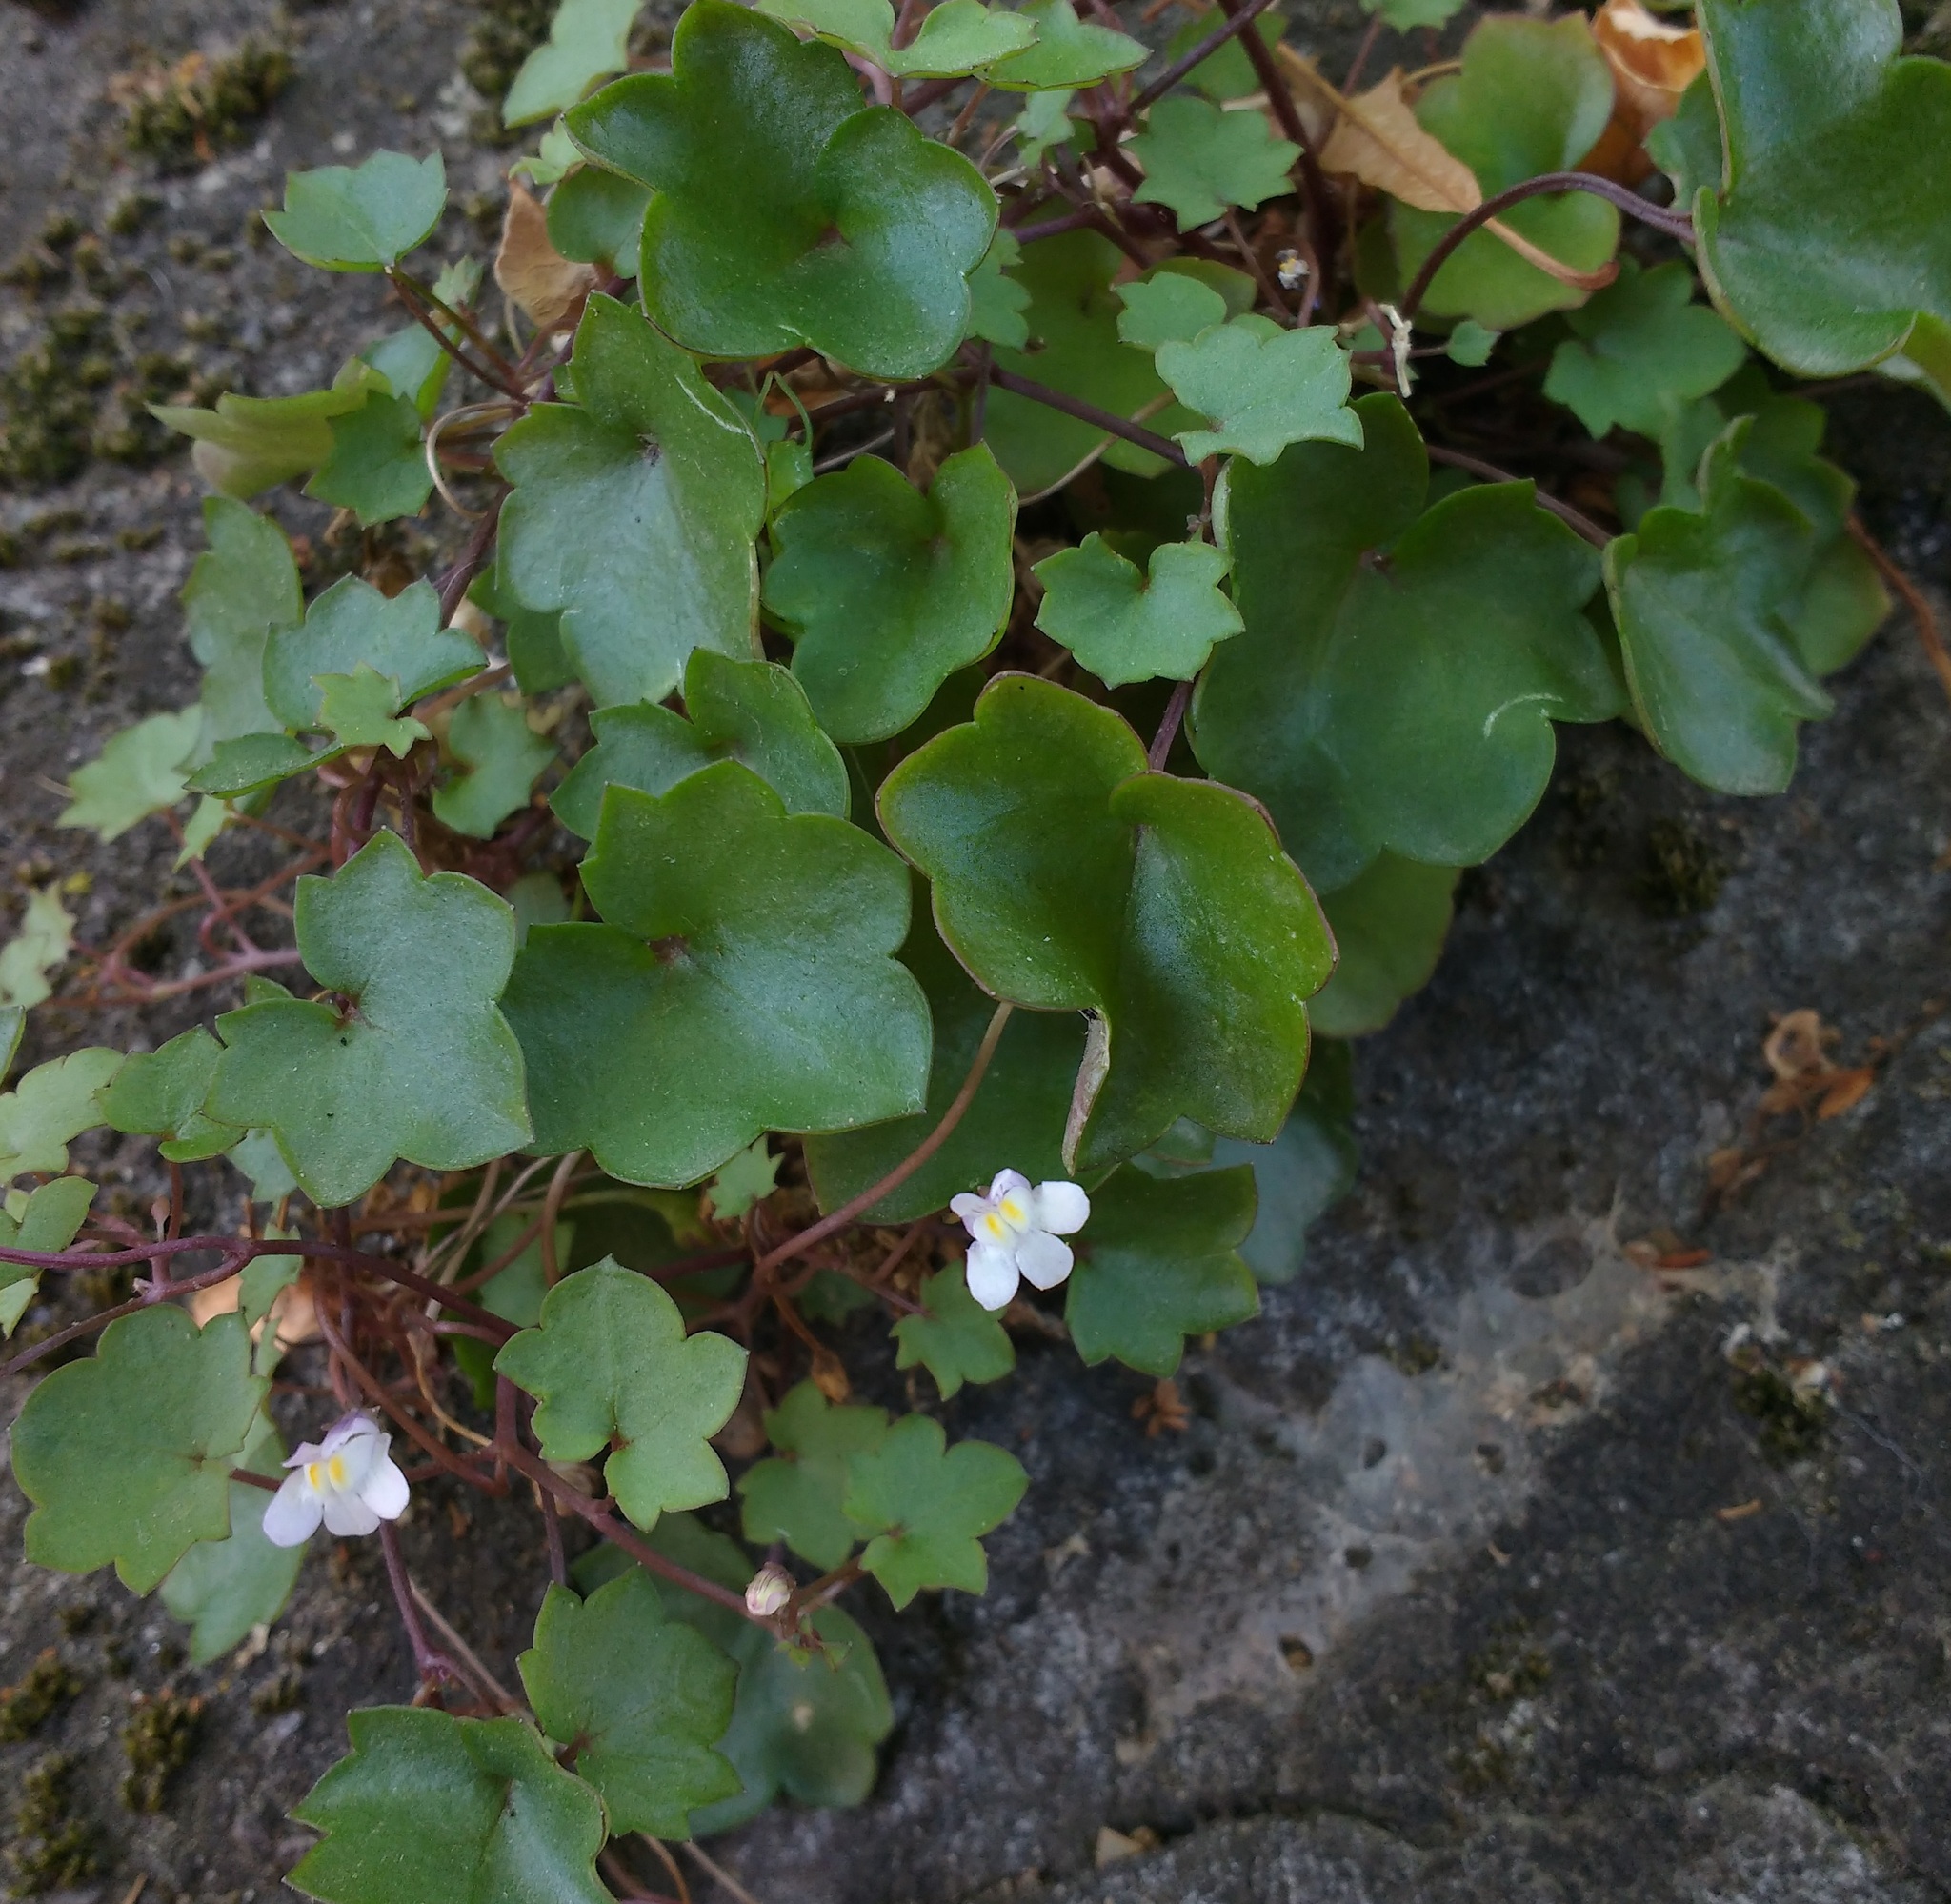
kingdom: Plantae
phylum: Tracheophyta
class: Magnoliopsida
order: Lamiales
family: Plantaginaceae
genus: Cymbalaria
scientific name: Cymbalaria muralis
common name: Ivy-leaved toadflax
